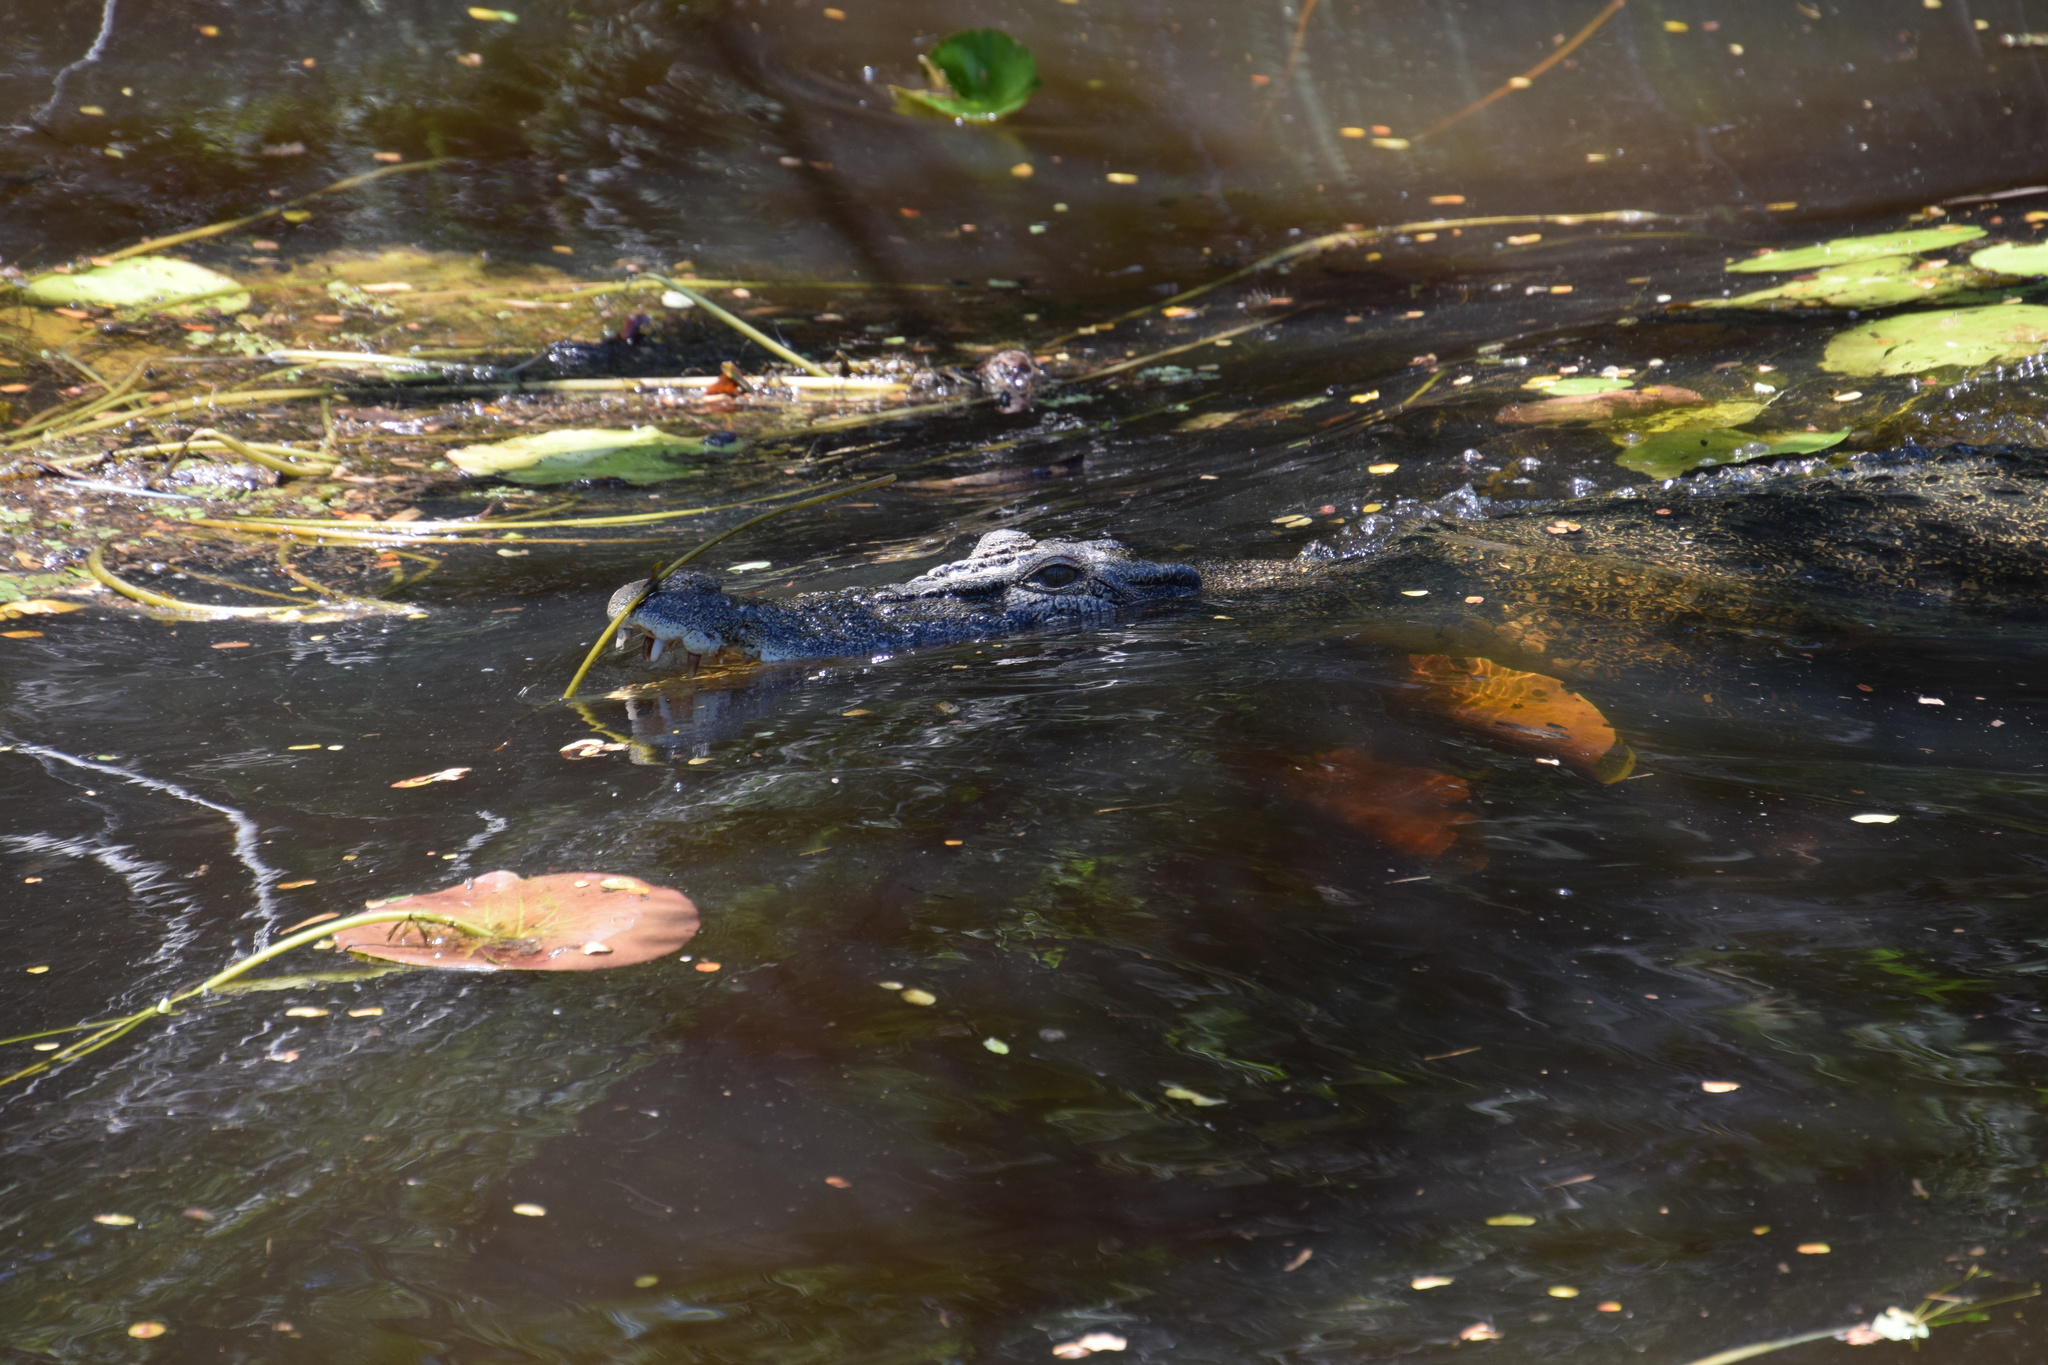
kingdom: Animalia
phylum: Chordata
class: Crocodylia
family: Crocodylidae
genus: Crocodylus
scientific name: Crocodylus porosus
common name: Saltwater crocodile
